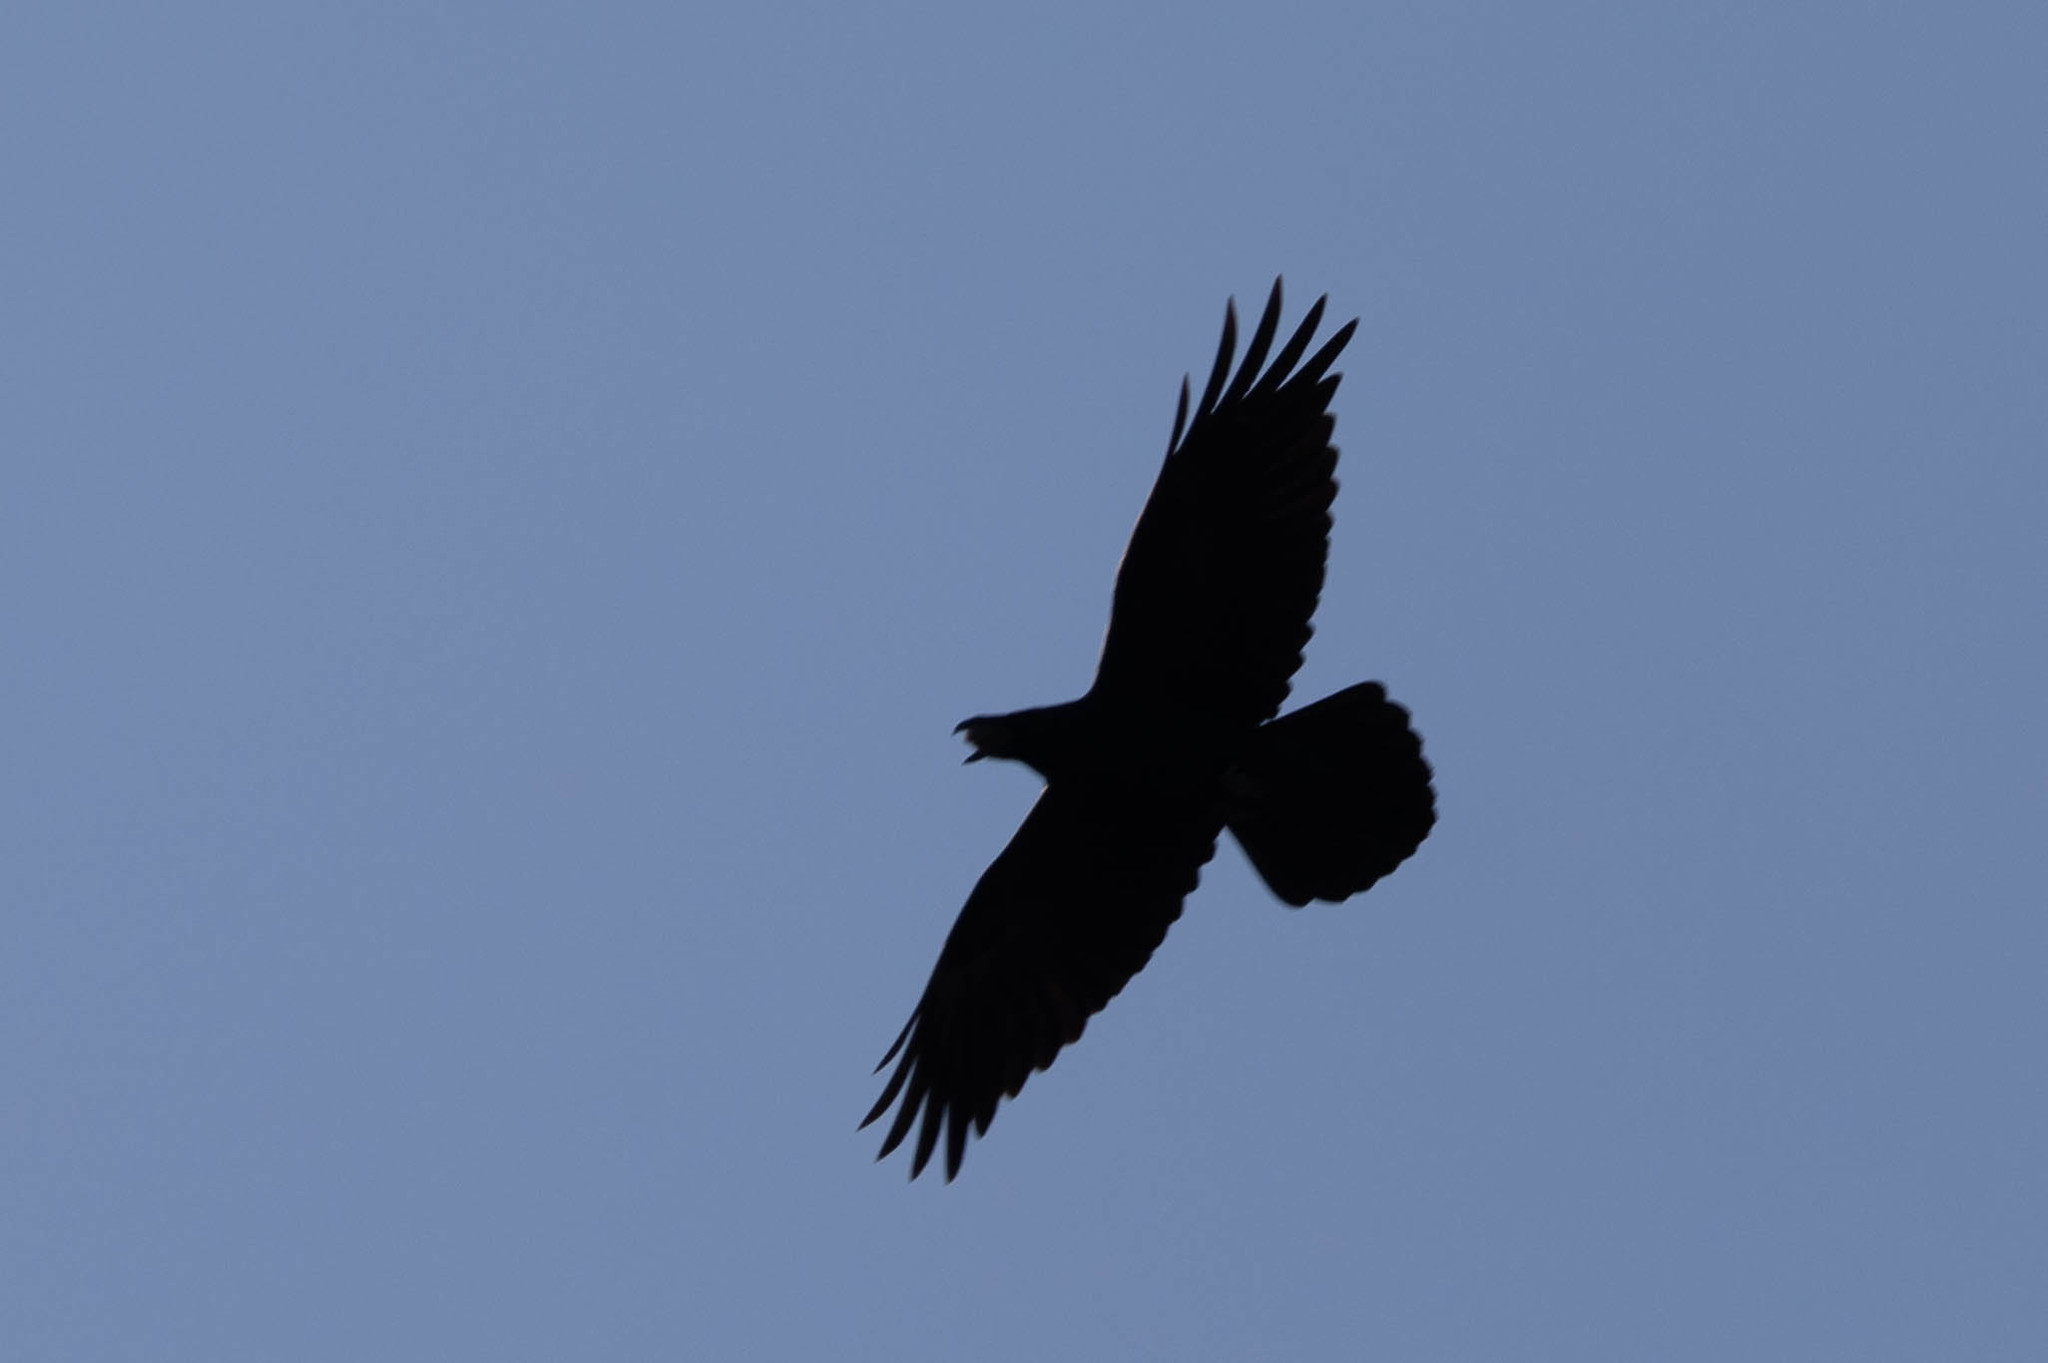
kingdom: Animalia
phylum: Chordata
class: Aves
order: Passeriformes
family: Corvidae
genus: Corvus
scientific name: Corvus corax
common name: Common raven
